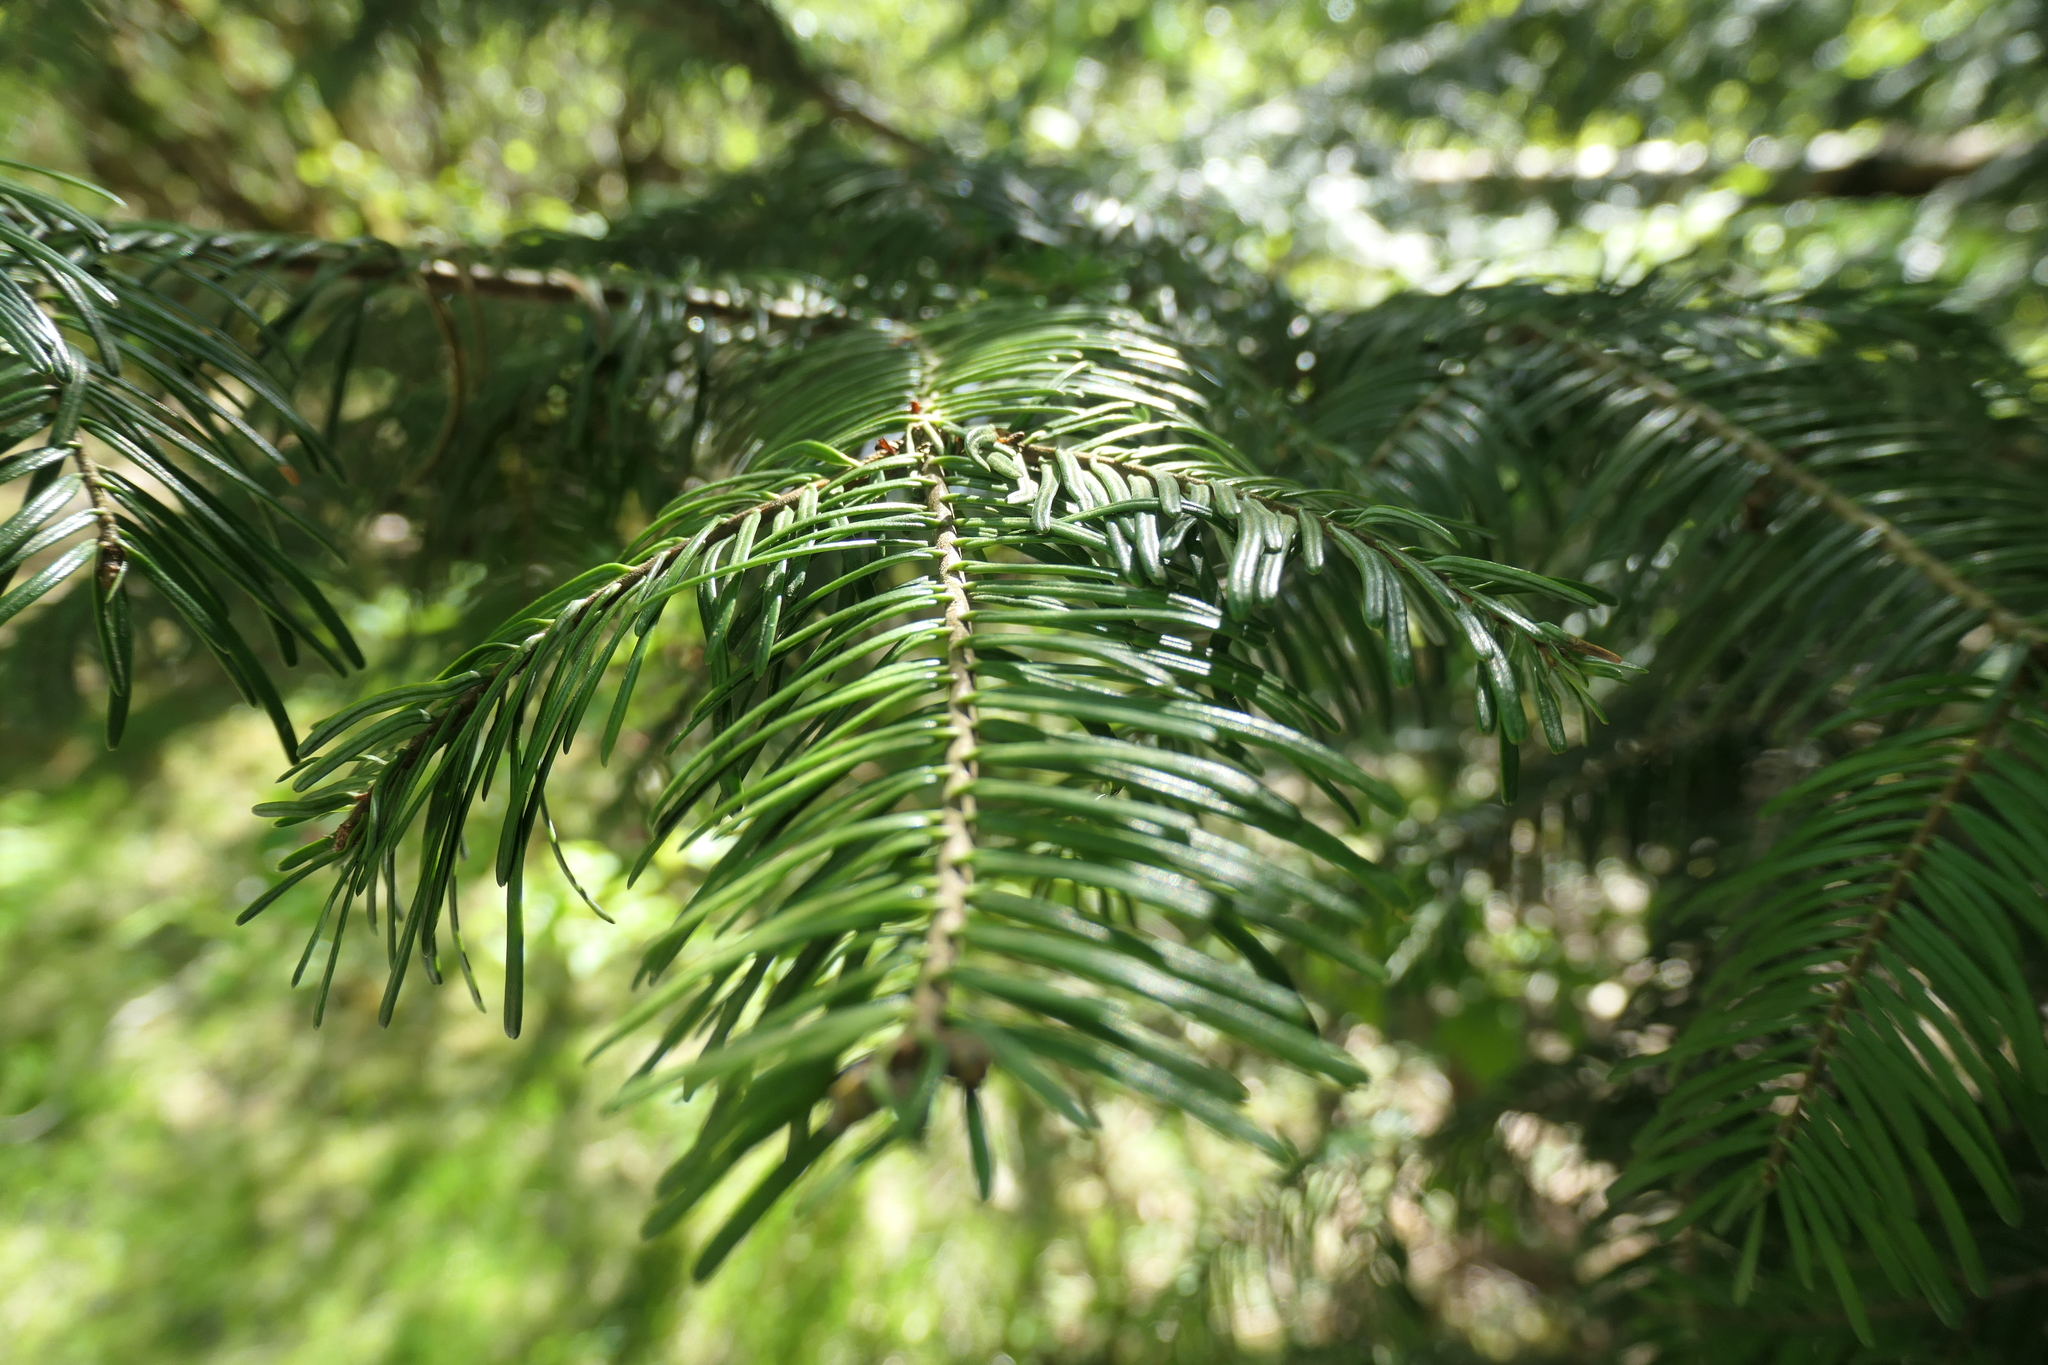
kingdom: Plantae
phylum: Tracheophyta
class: Pinopsida
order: Pinales
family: Pinaceae
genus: Abies
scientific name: Abies grandis
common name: Giant fir
